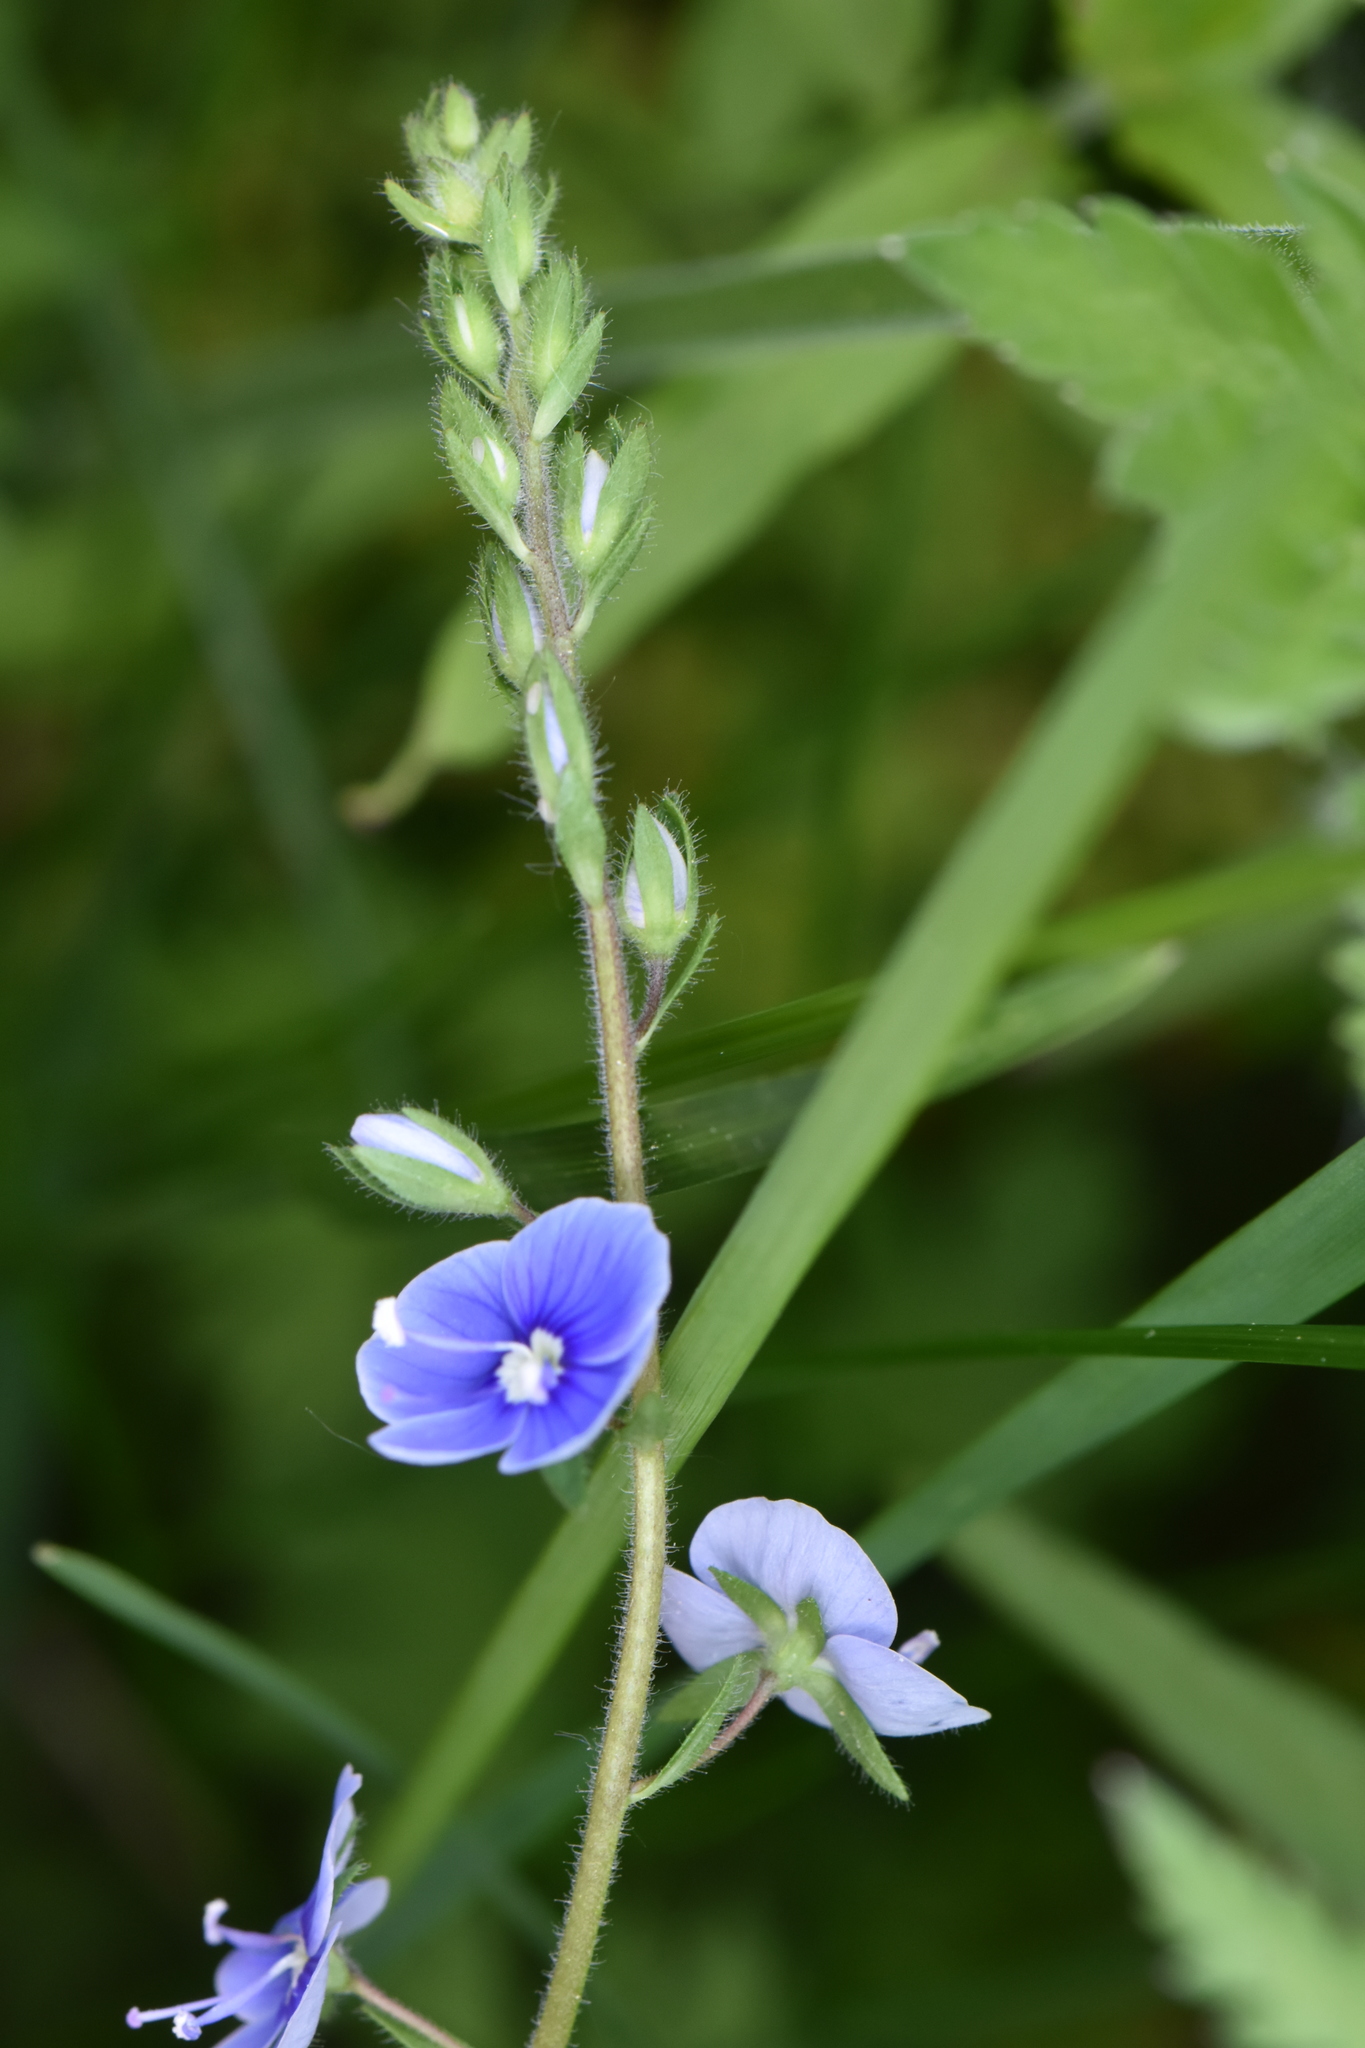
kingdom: Plantae
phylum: Tracheophyta
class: Magnoliopsida
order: Lamiales
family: Plantaginaceae
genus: Veronica
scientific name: Veronica chamaedrys
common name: Germander speedwell
